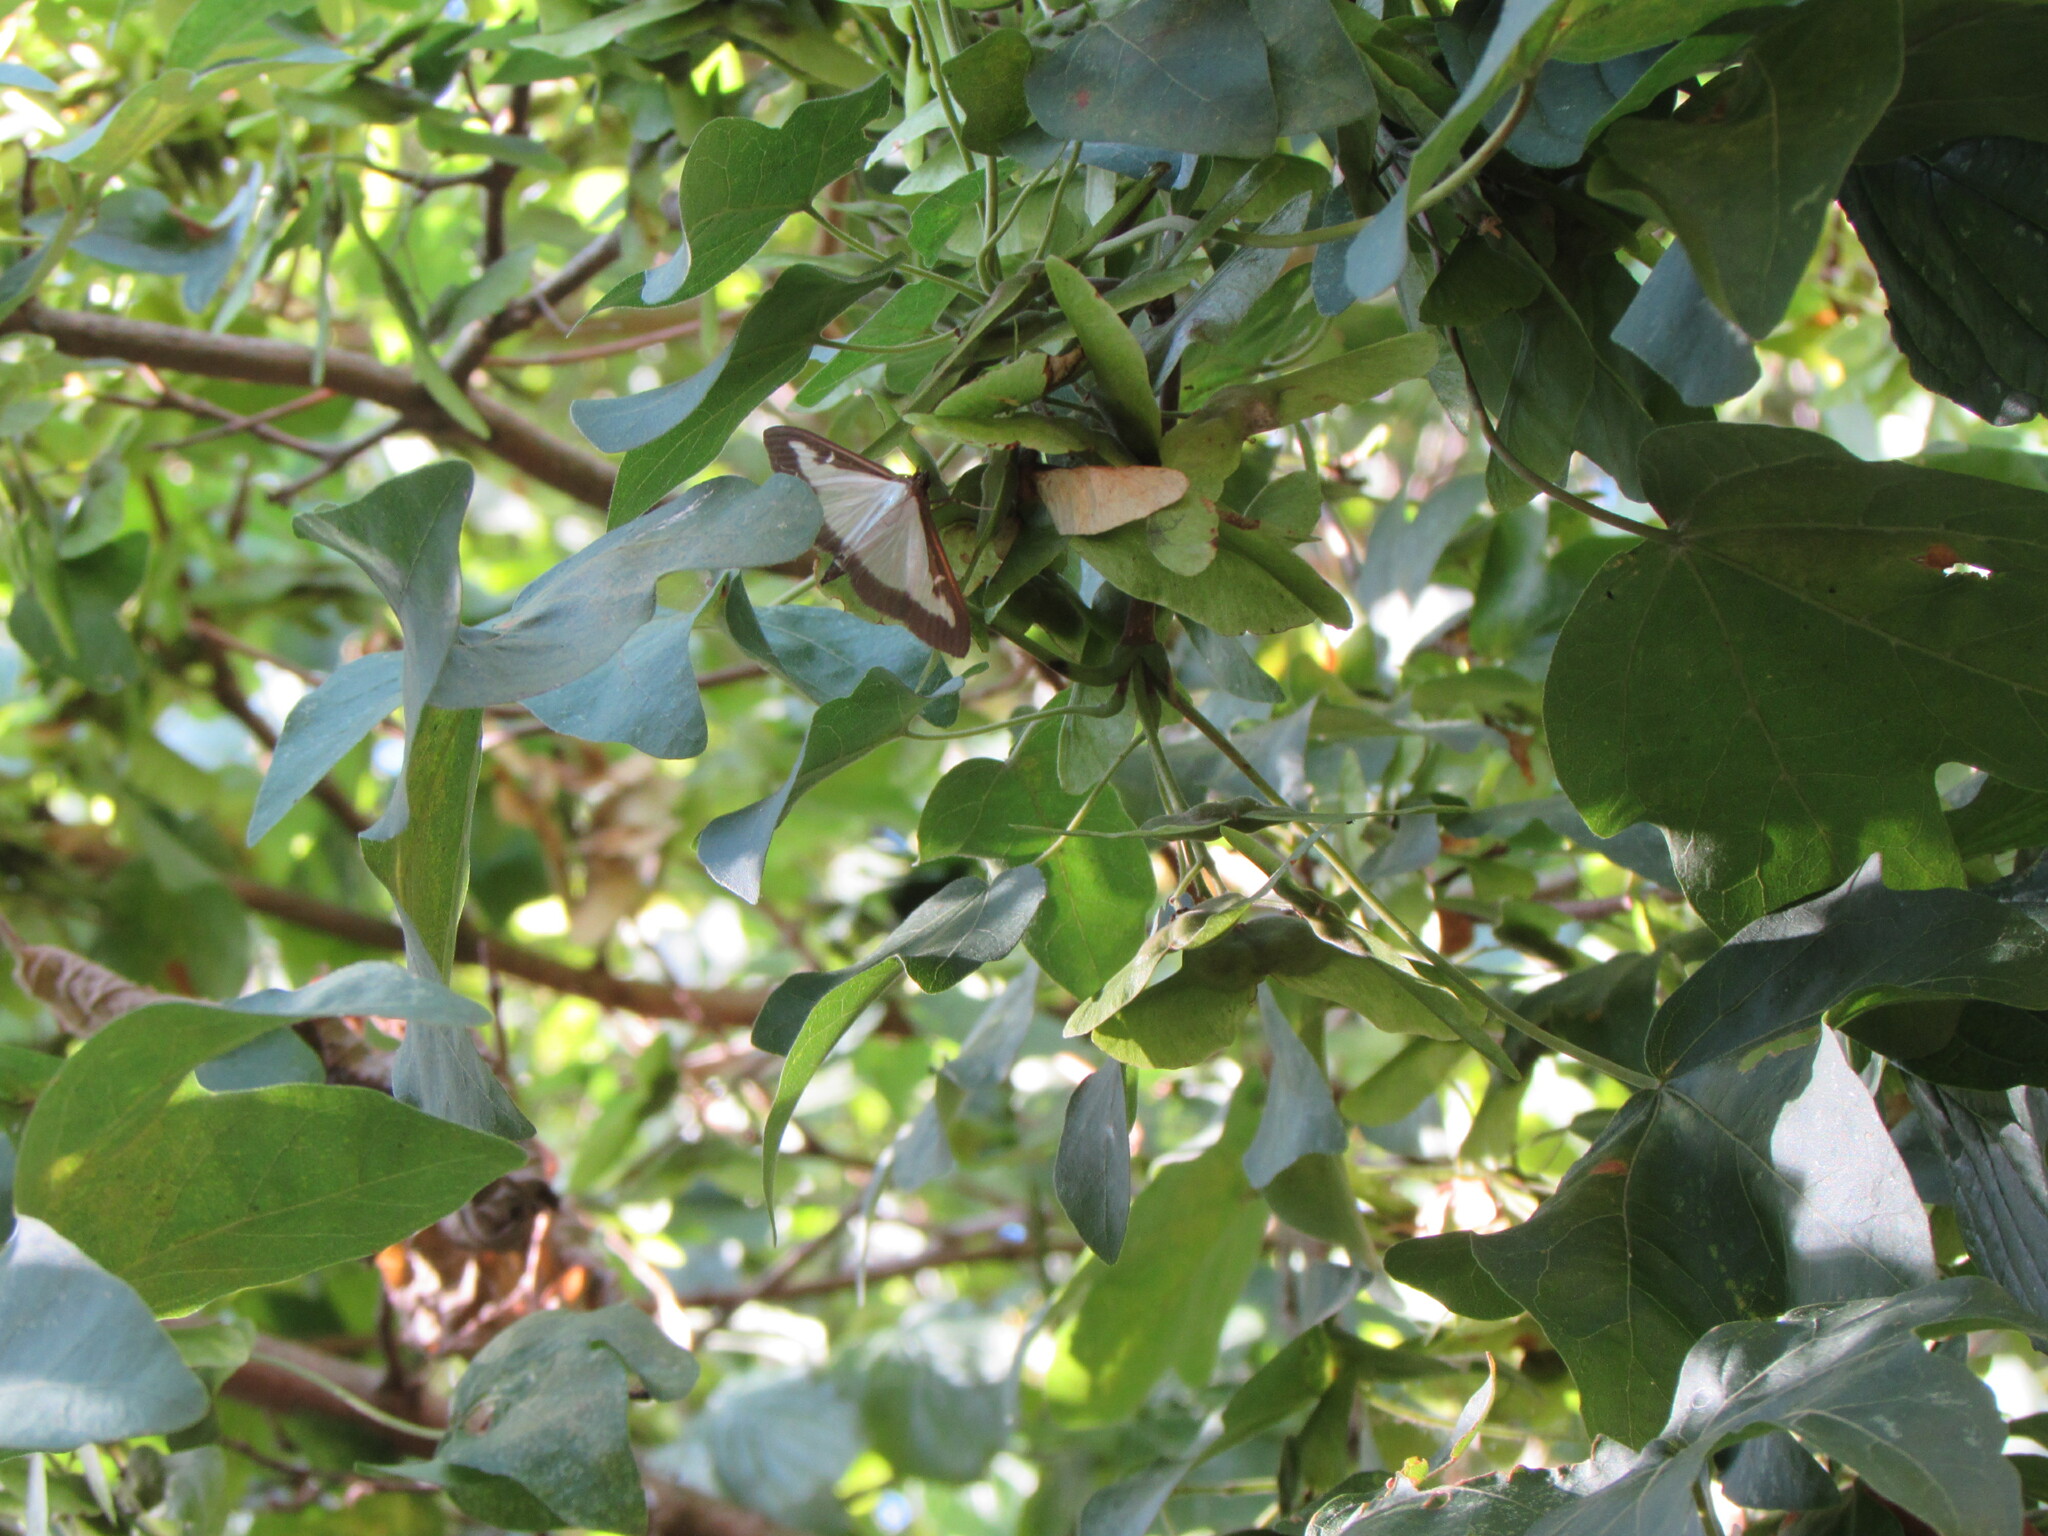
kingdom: Animalia
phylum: Arthropoda
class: Insecta
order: Lepidoptera
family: Crambidae
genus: Cydalima
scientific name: Cydalima perspectalis
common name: Box tree moth
